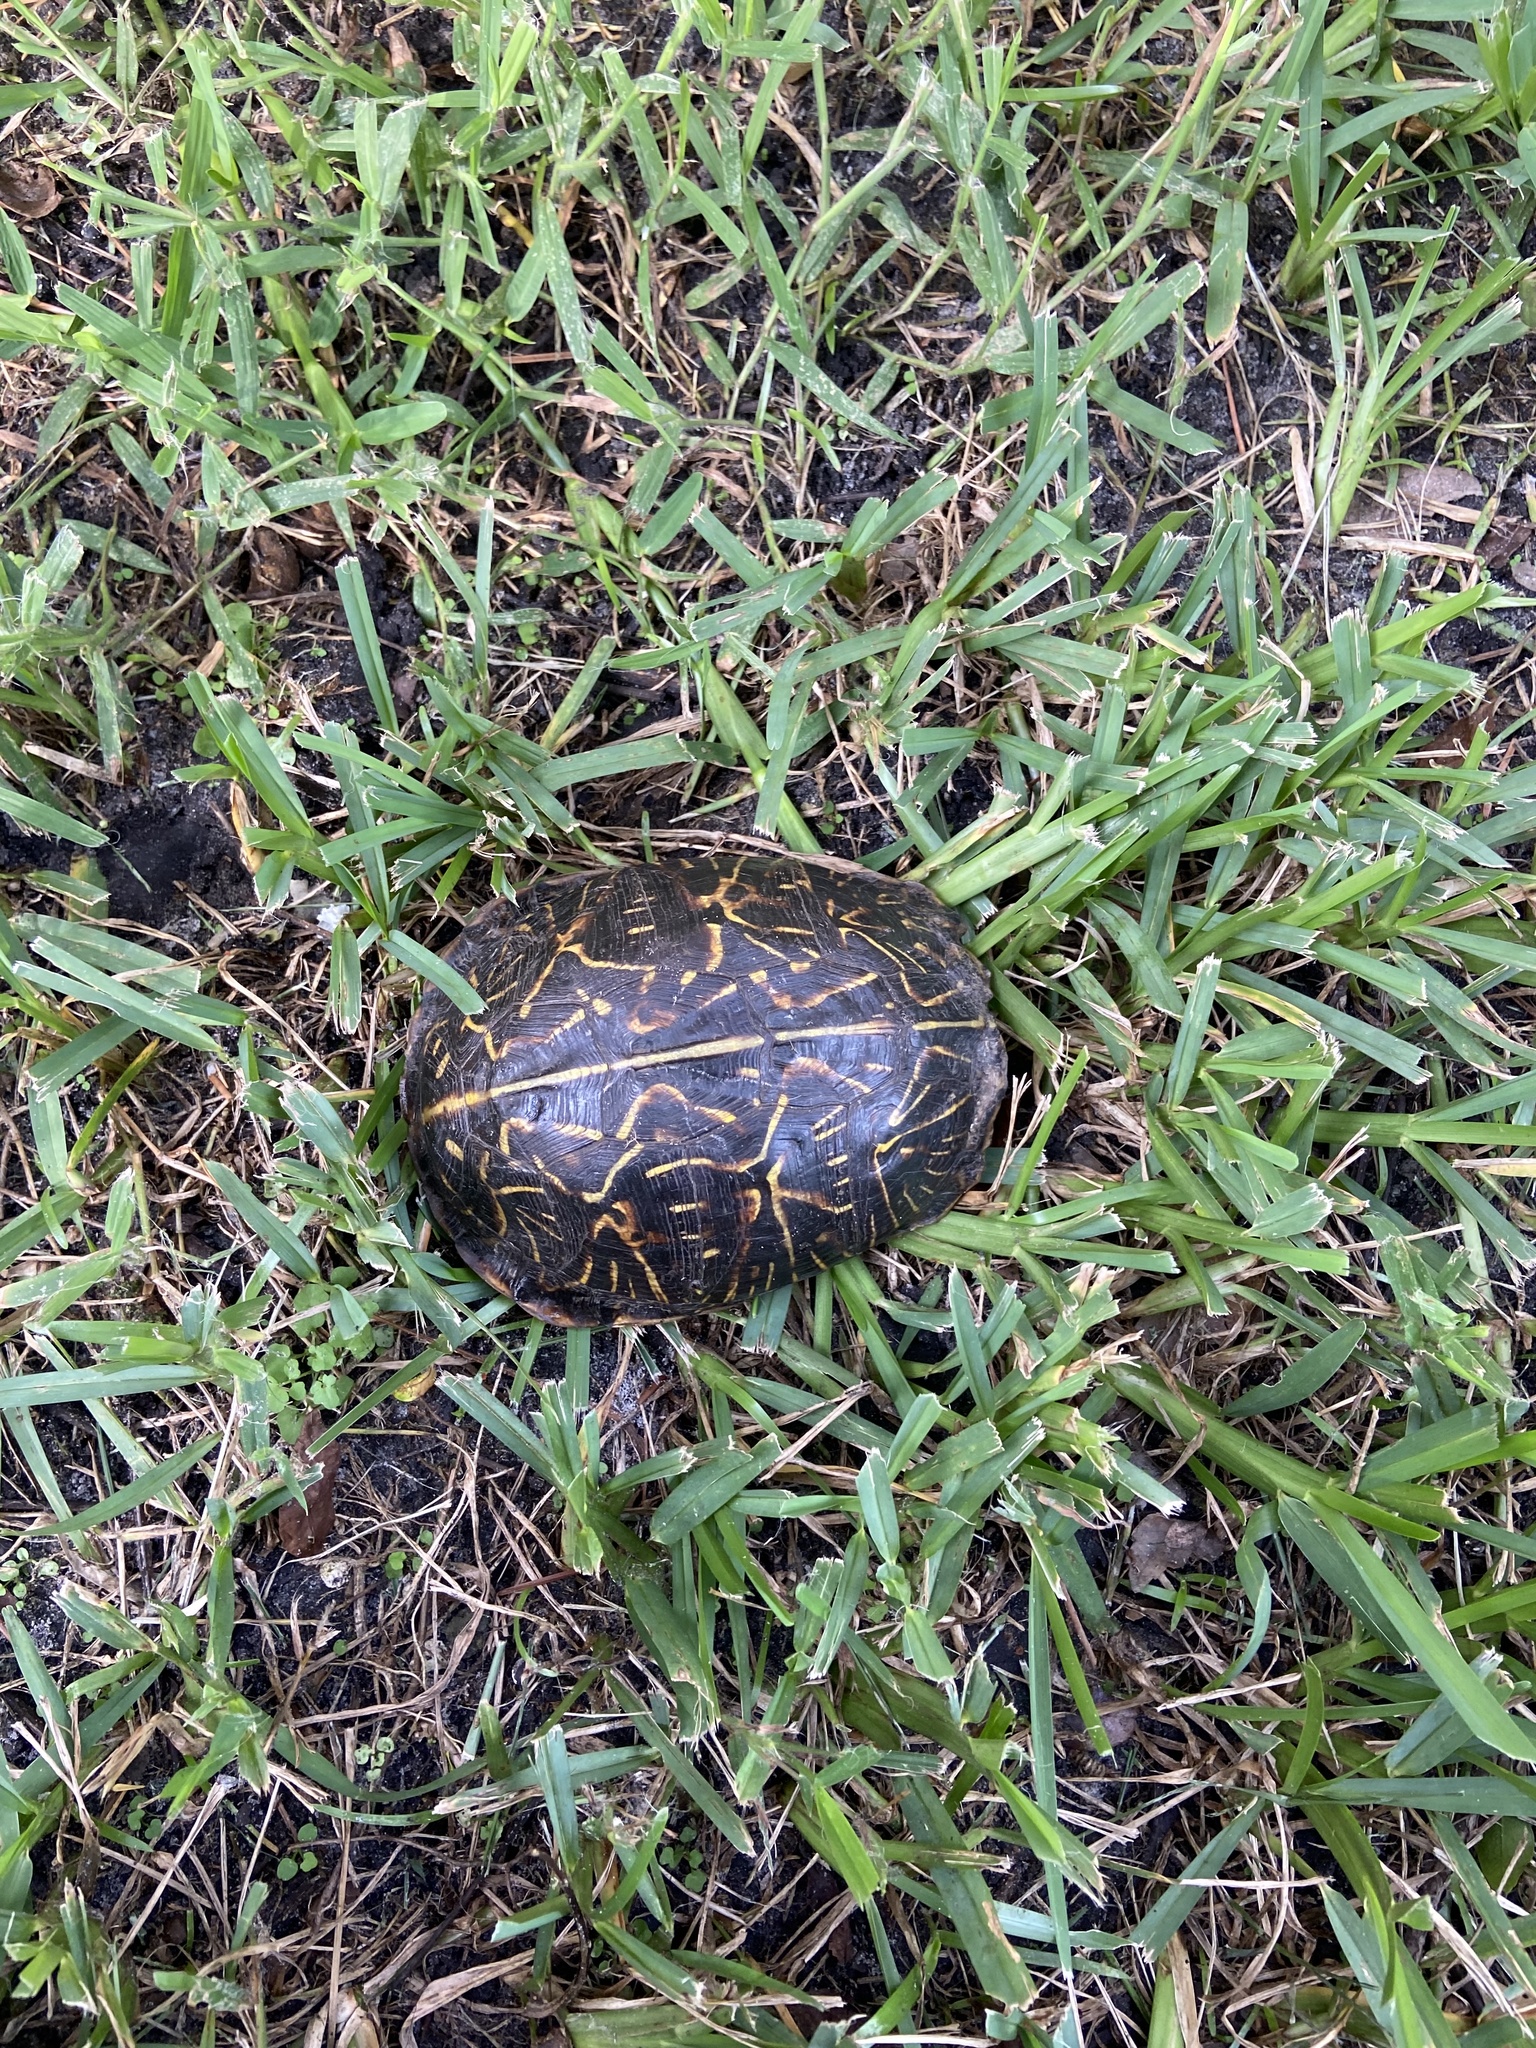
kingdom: Animalia
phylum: Chordata
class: Testudines
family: Emydidae
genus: Terrapene
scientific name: Terrapene carolina
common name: Common box turtle
